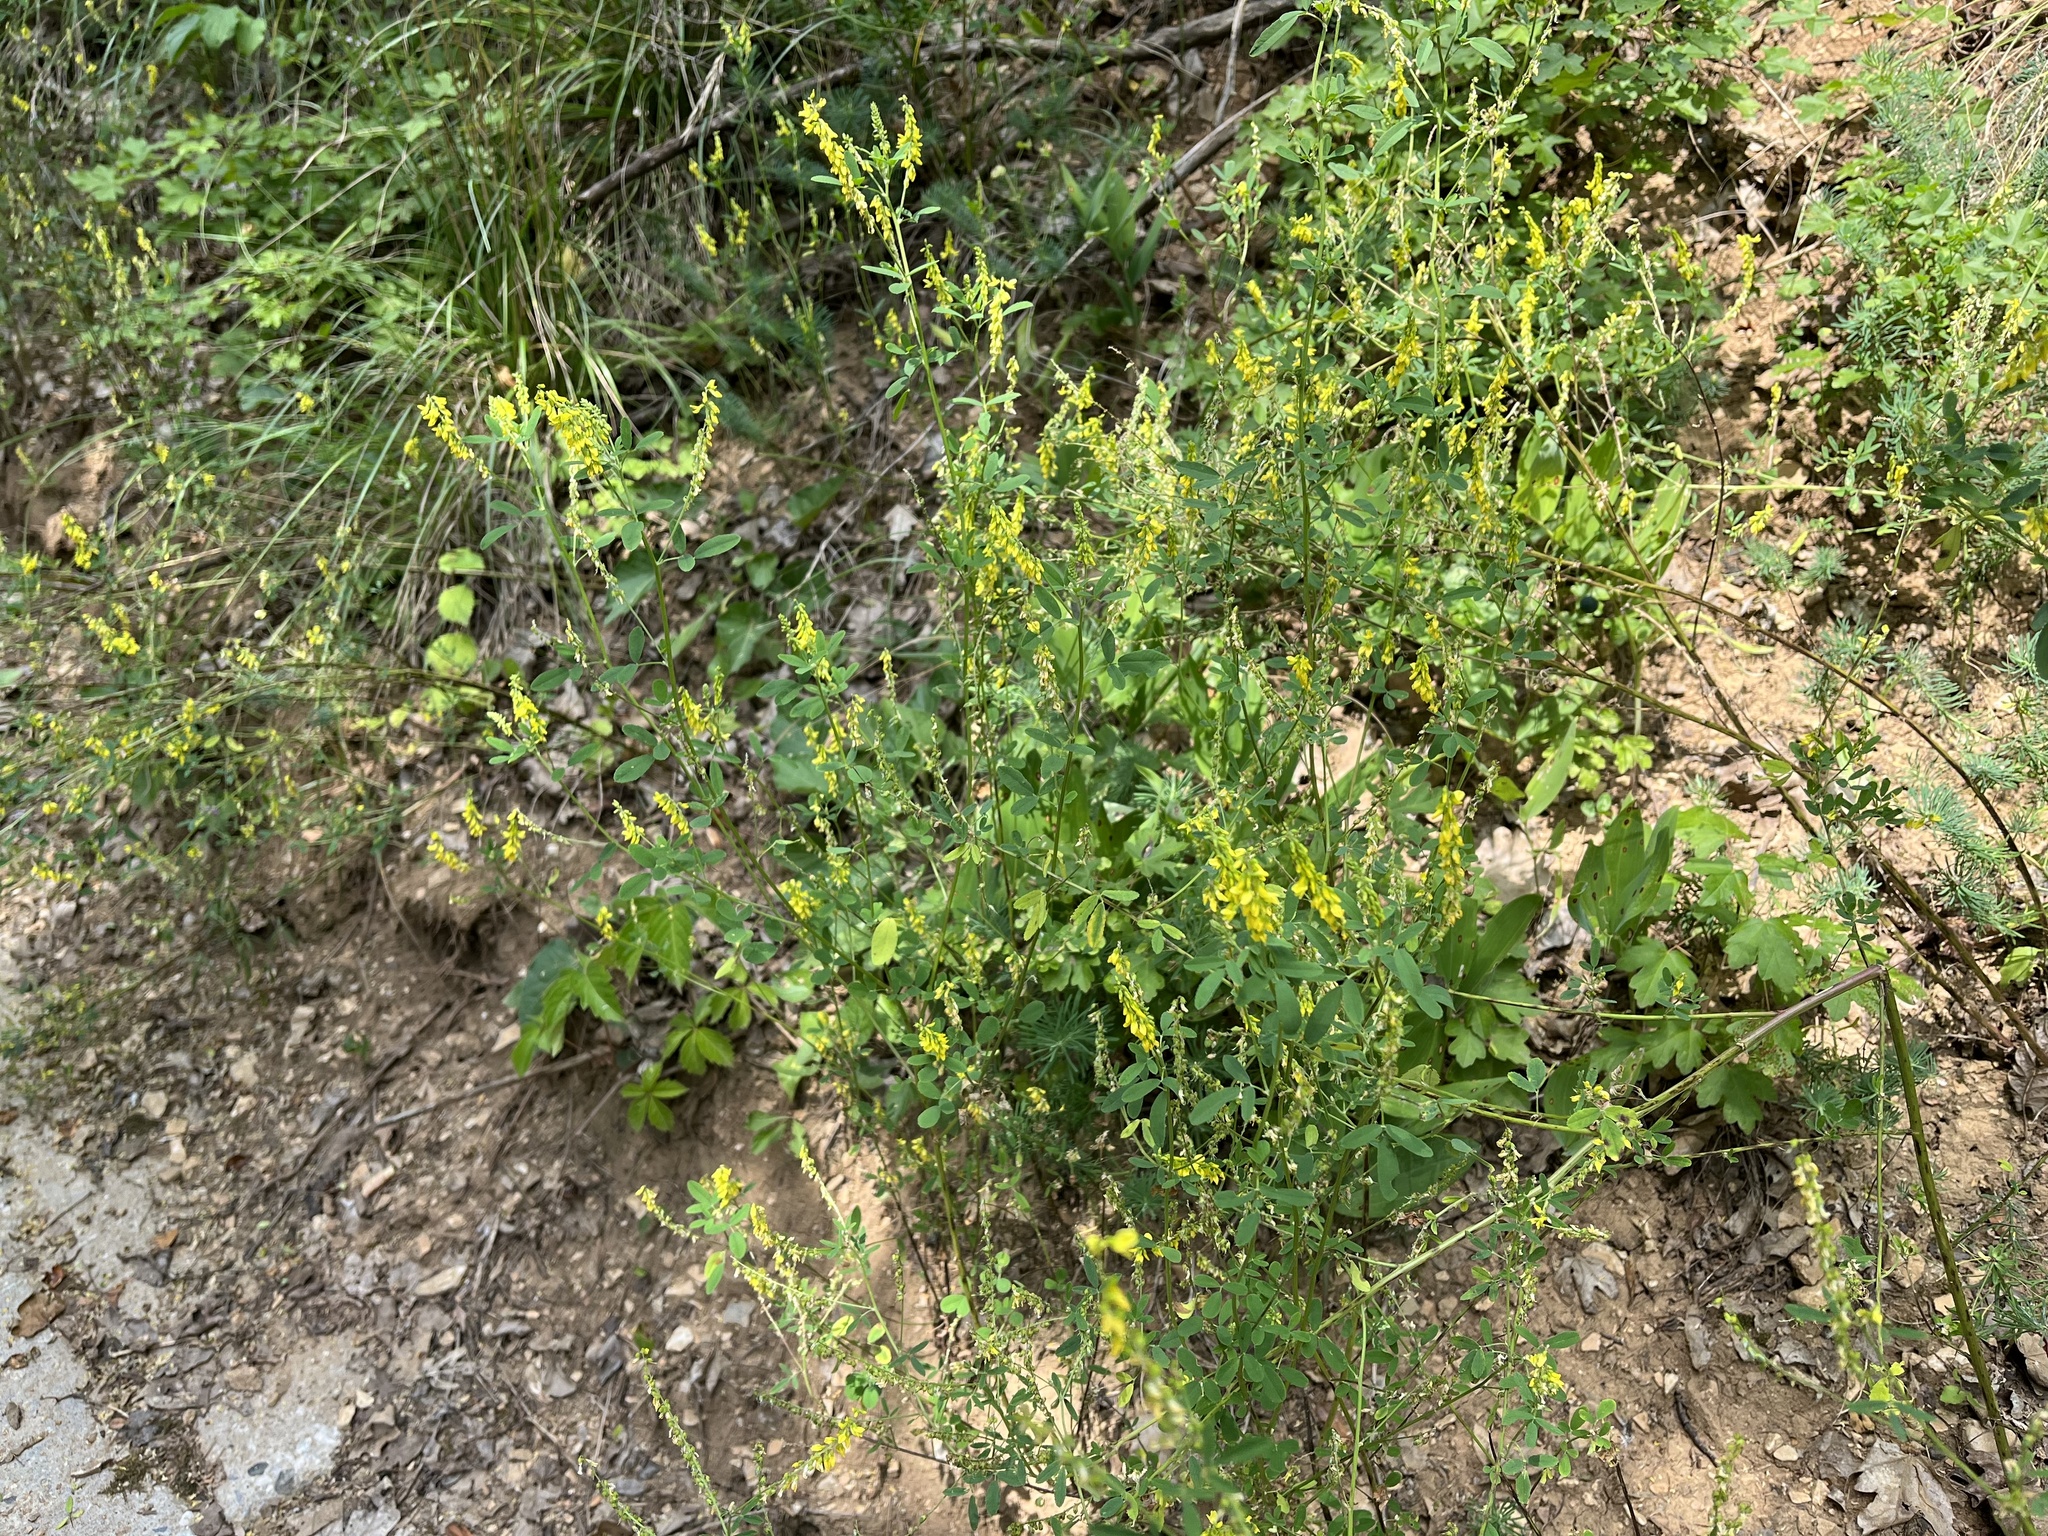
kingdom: Plantae
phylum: Tracheophyta
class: Magnoliopsida
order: Fabales
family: Fabaceae
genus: Melilotus
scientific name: Melilotus officinalis
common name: Sweetclover
